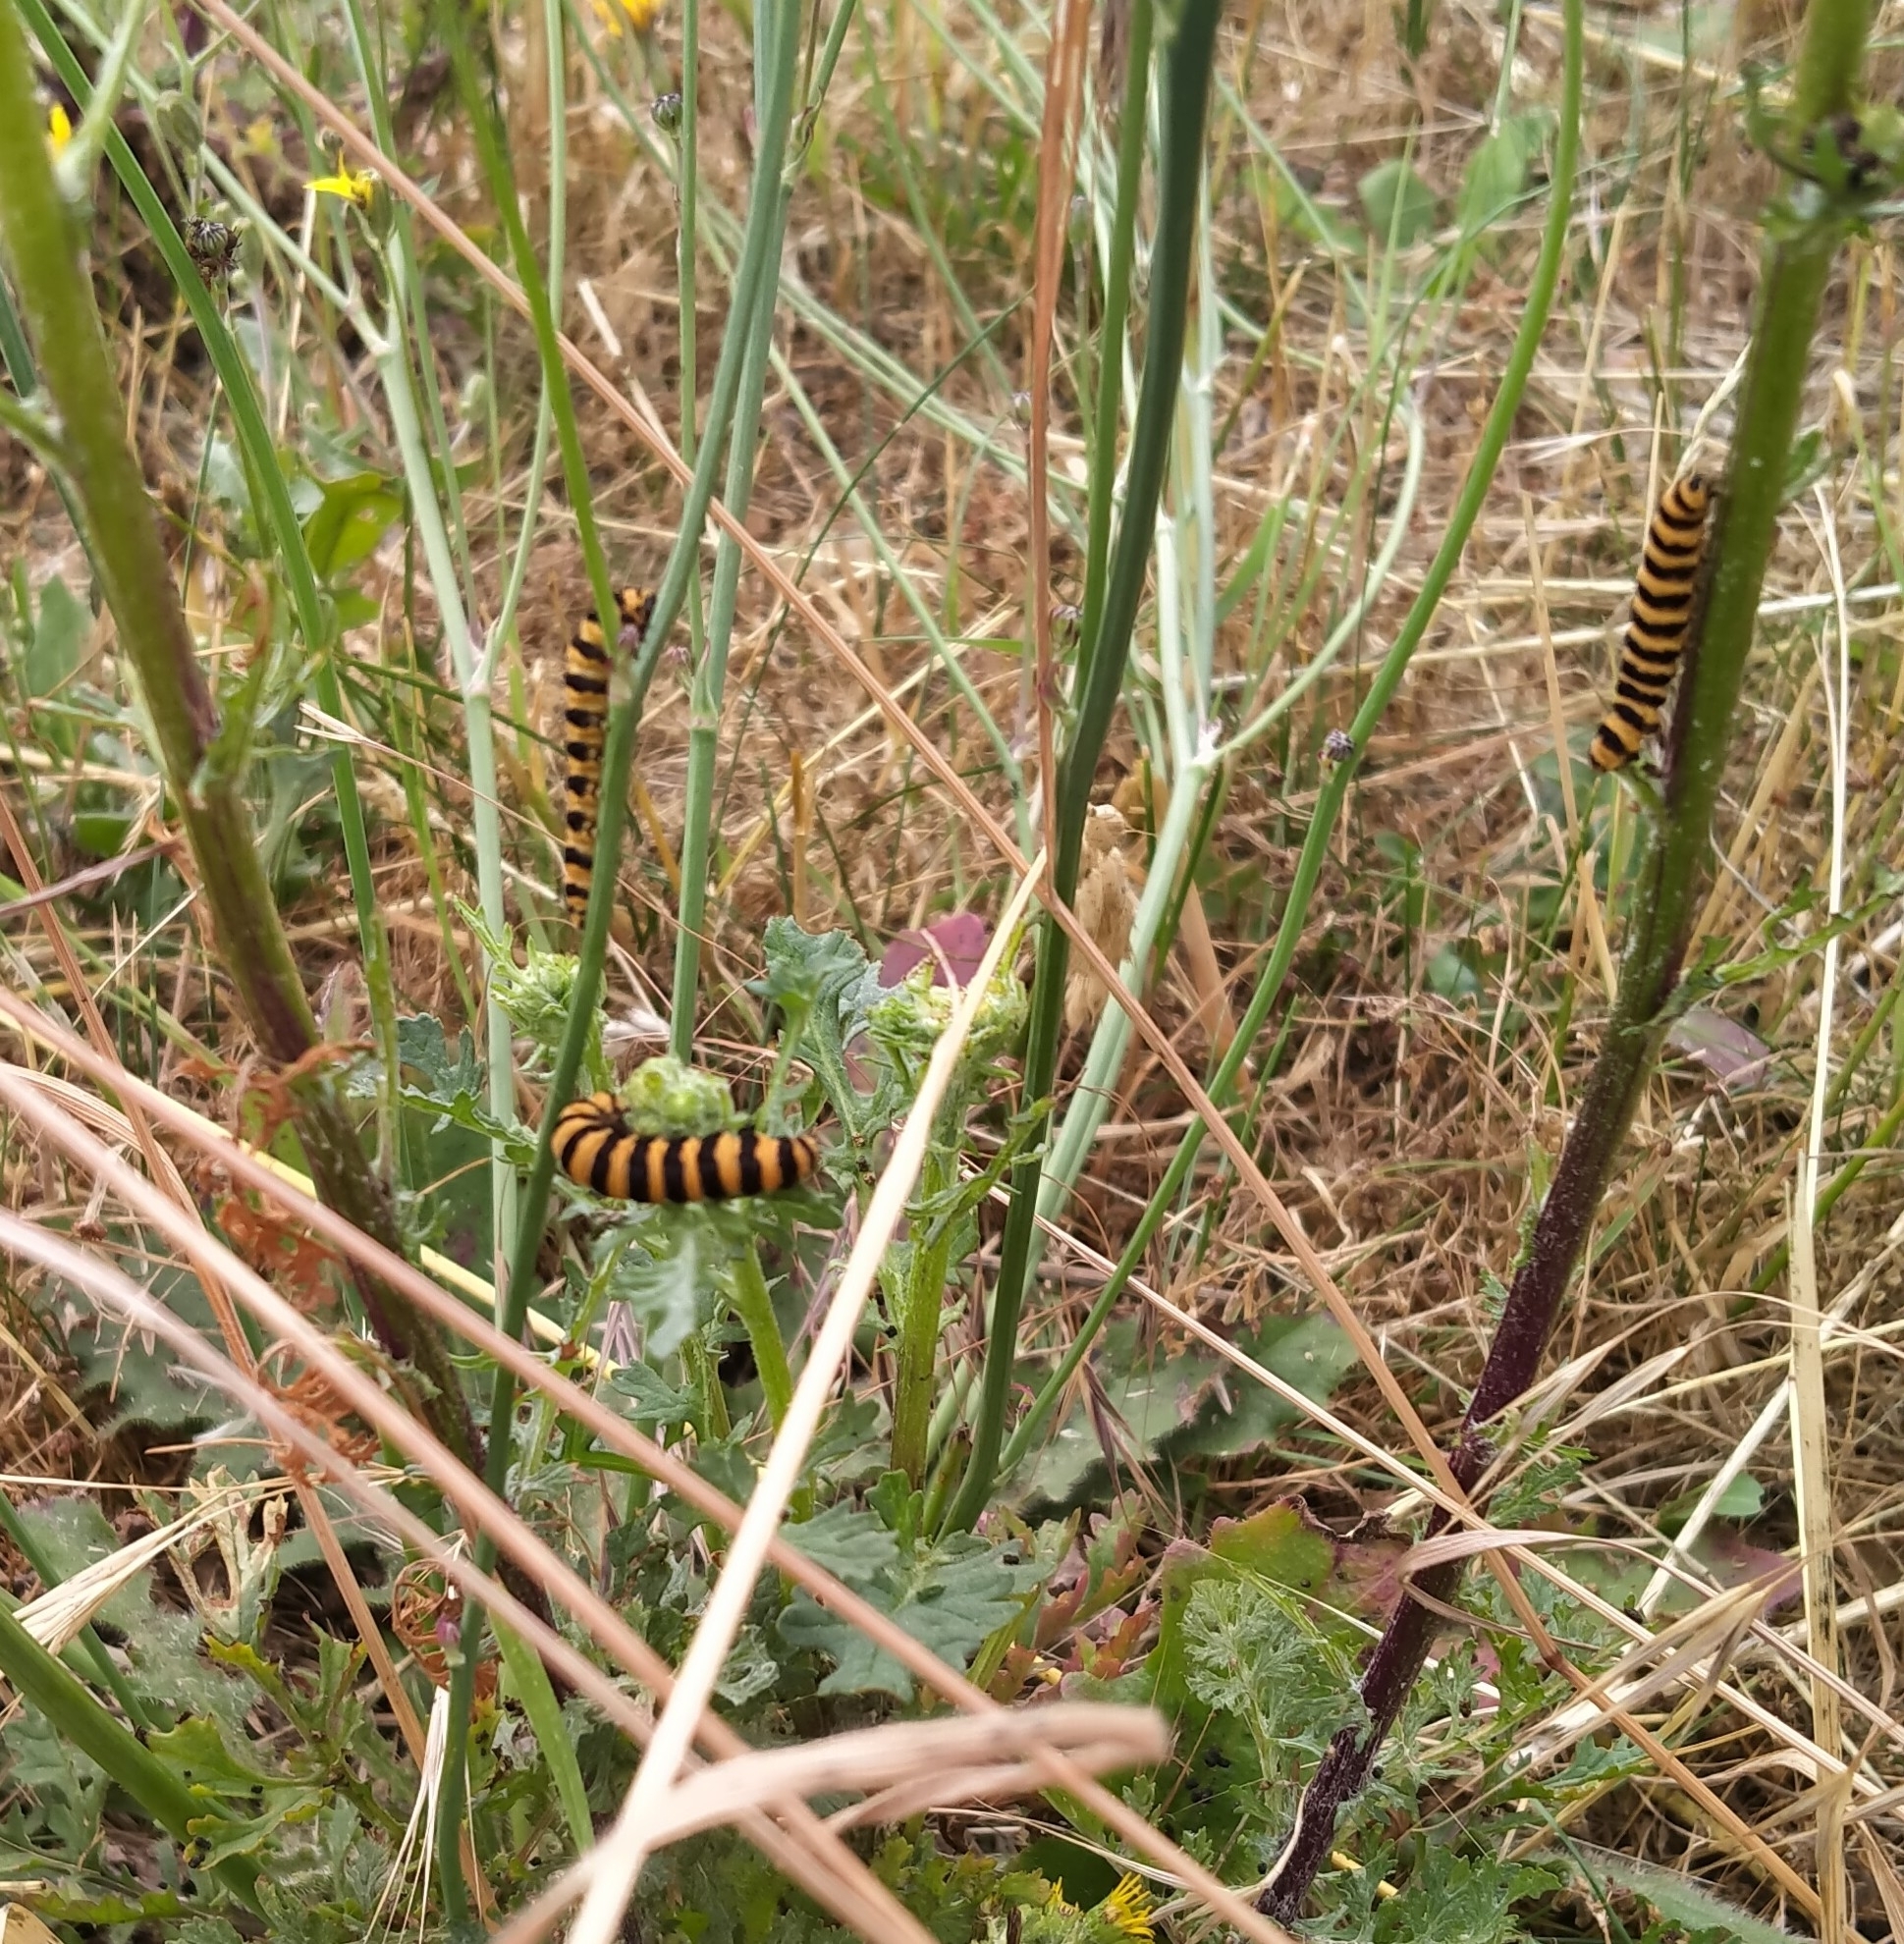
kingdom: Animalia
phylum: Arthropoda
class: Insecta
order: Lepidoptera
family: Erebidae
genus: Tyria
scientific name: Tyria jacobaeae
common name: Cinnabar
